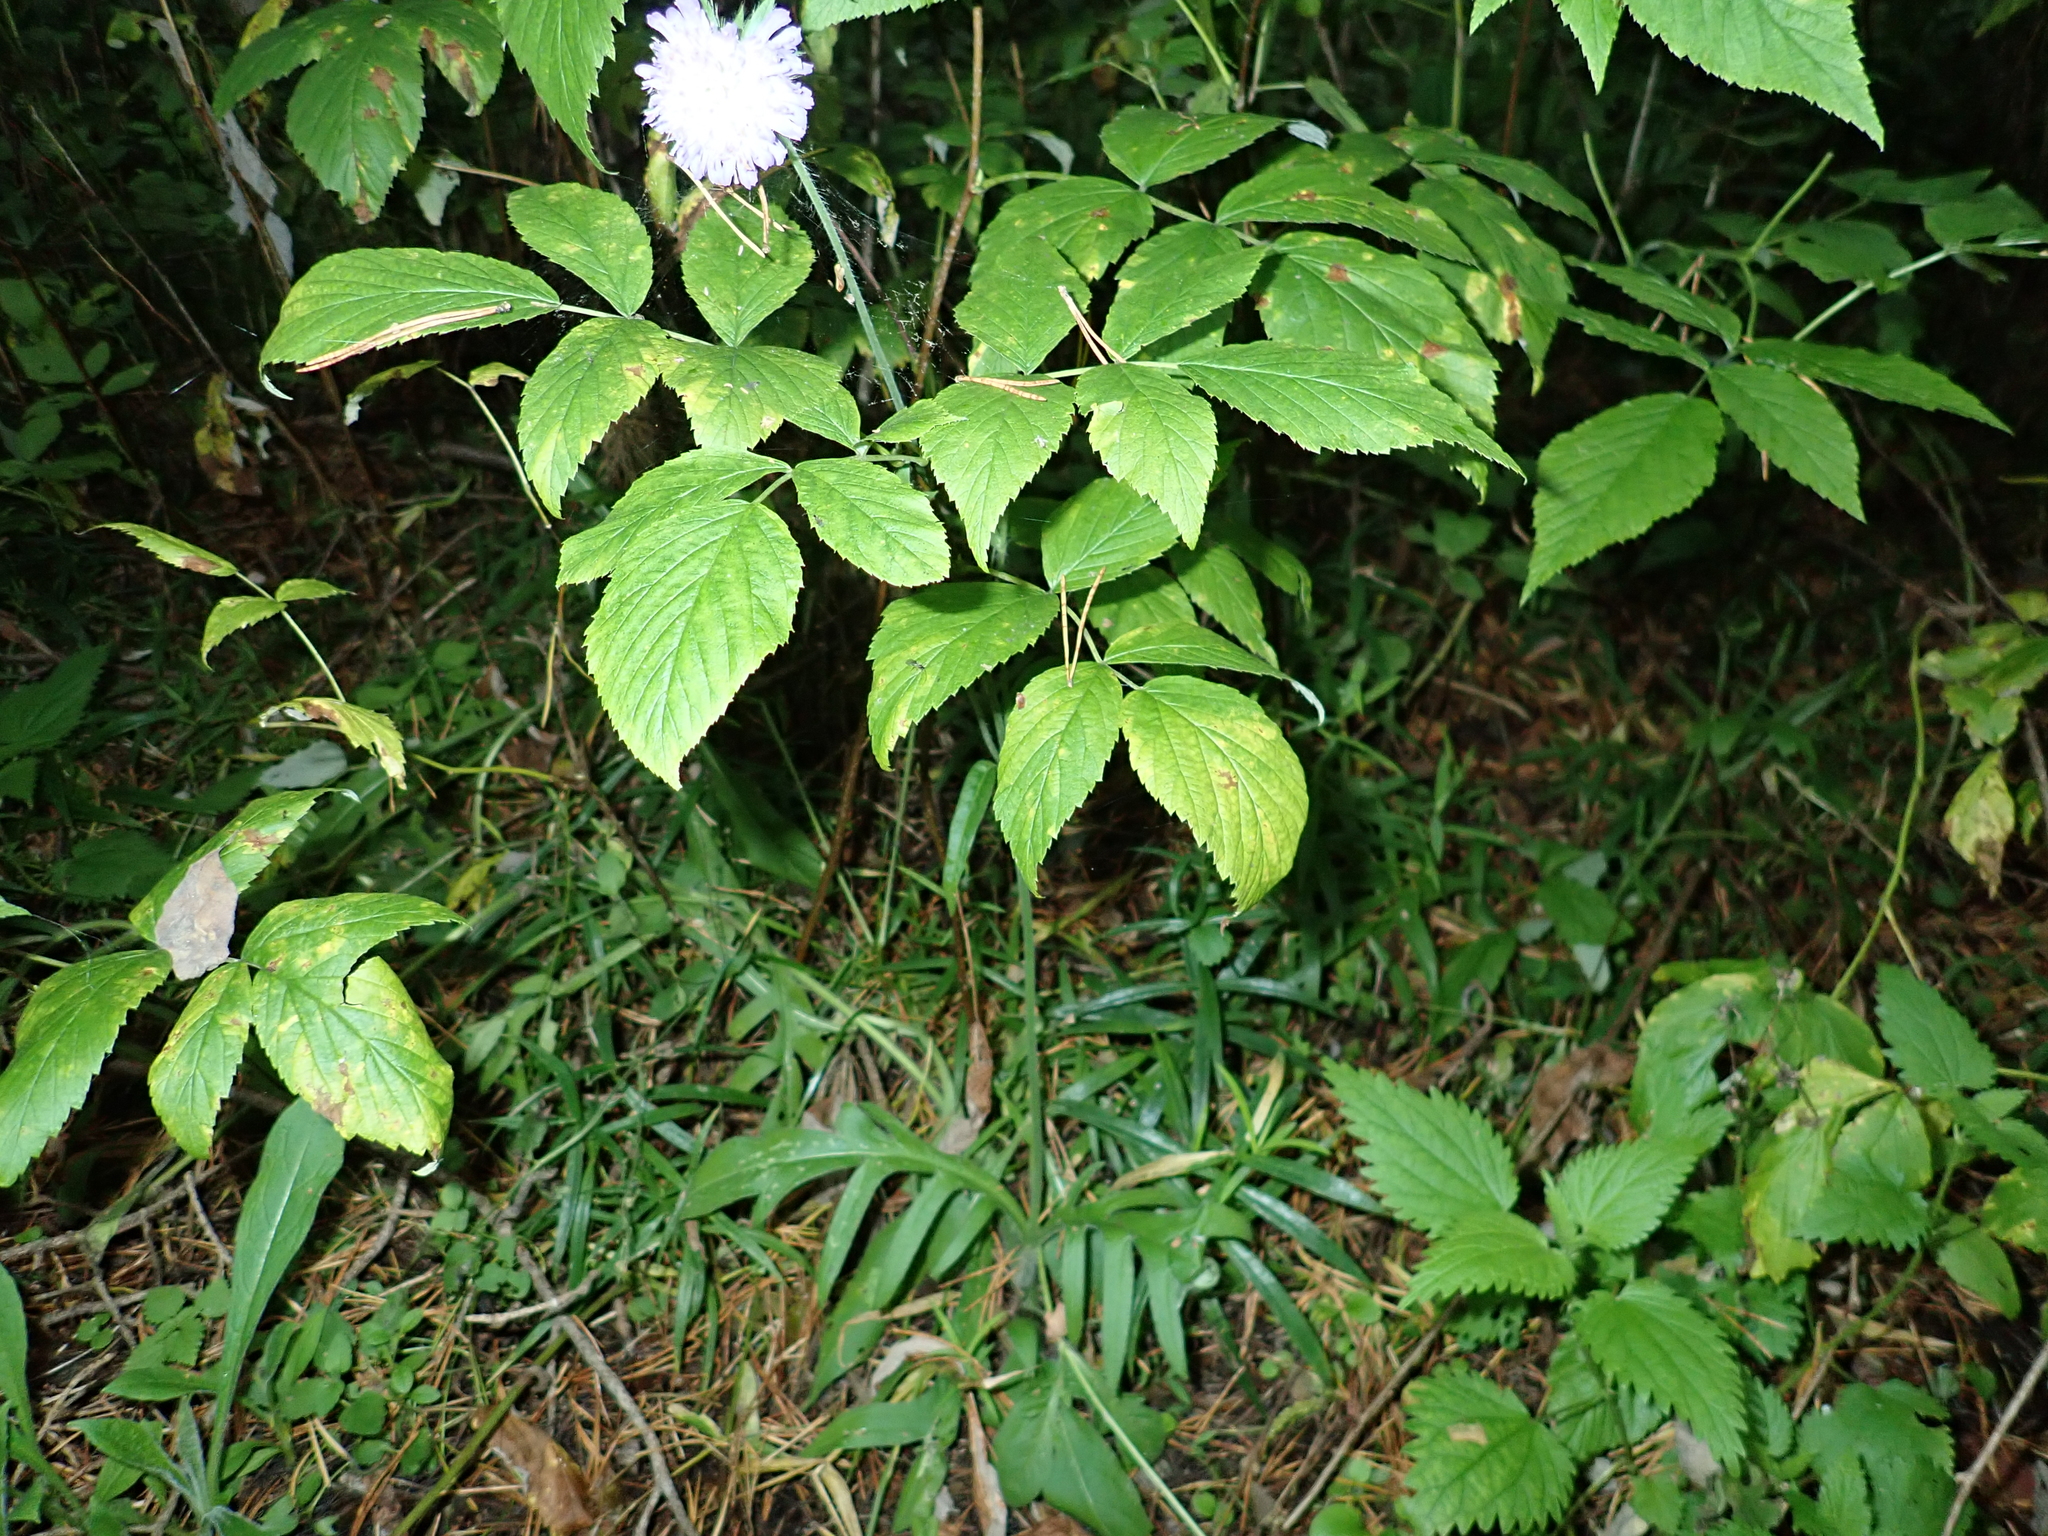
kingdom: Plantae
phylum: Tracheophyta
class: Magnoliopsida
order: Dipsacales
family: Caprifoliaceae
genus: Knautia
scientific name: Knautia arvensis
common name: Field scabiosa
